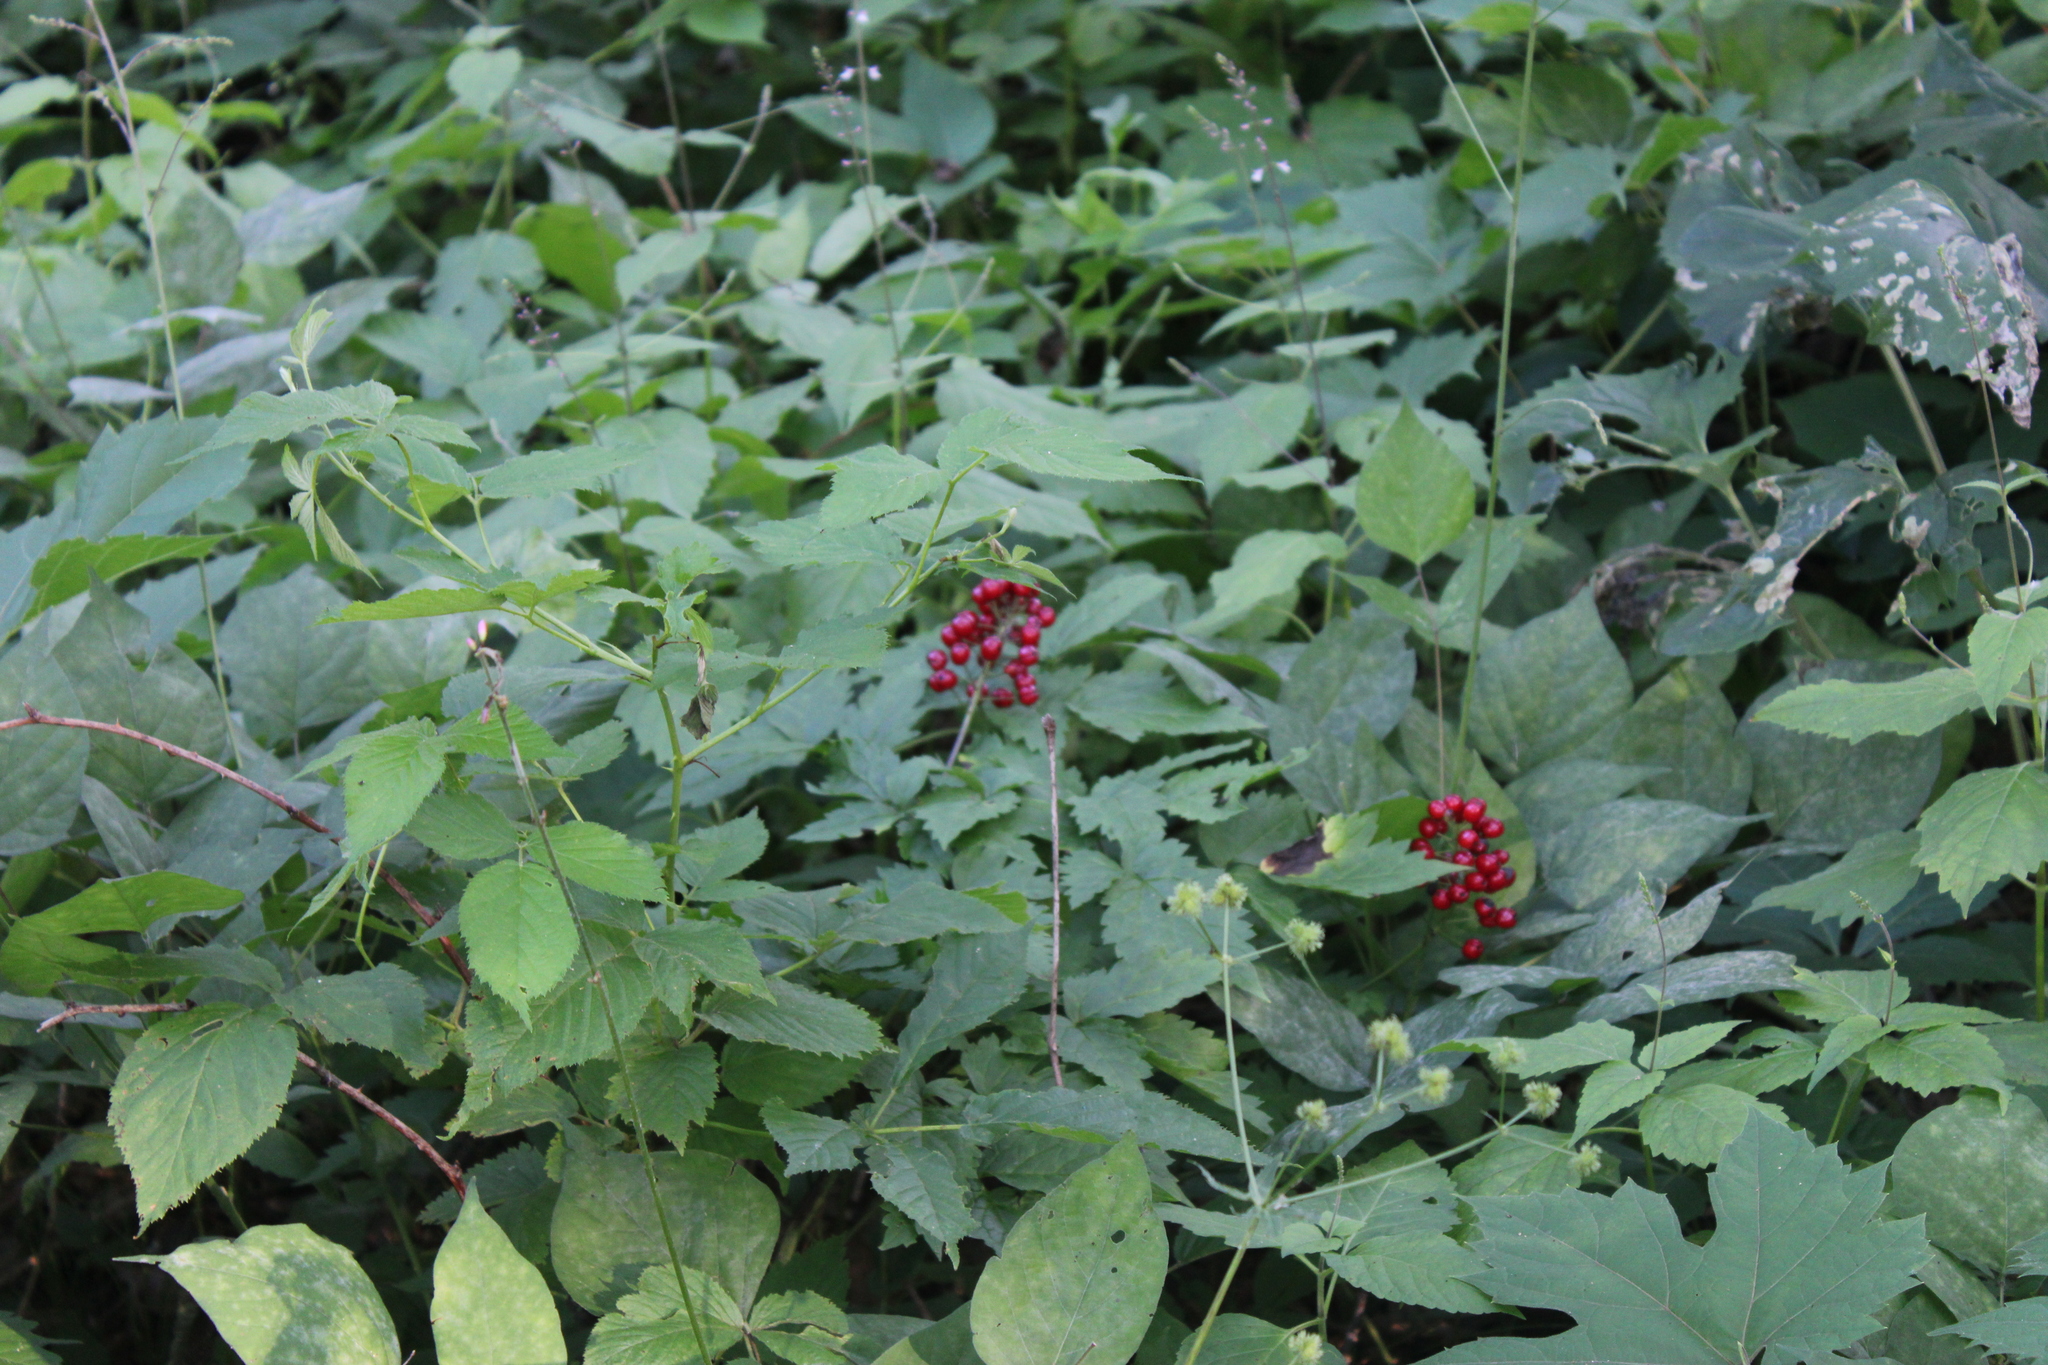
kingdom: Plantae
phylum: Tracheophyta
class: Magnoliopsida
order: Ranunculales
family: Ranunculaceae
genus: Actaea
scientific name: Actaea rubra
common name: Red baneberry
